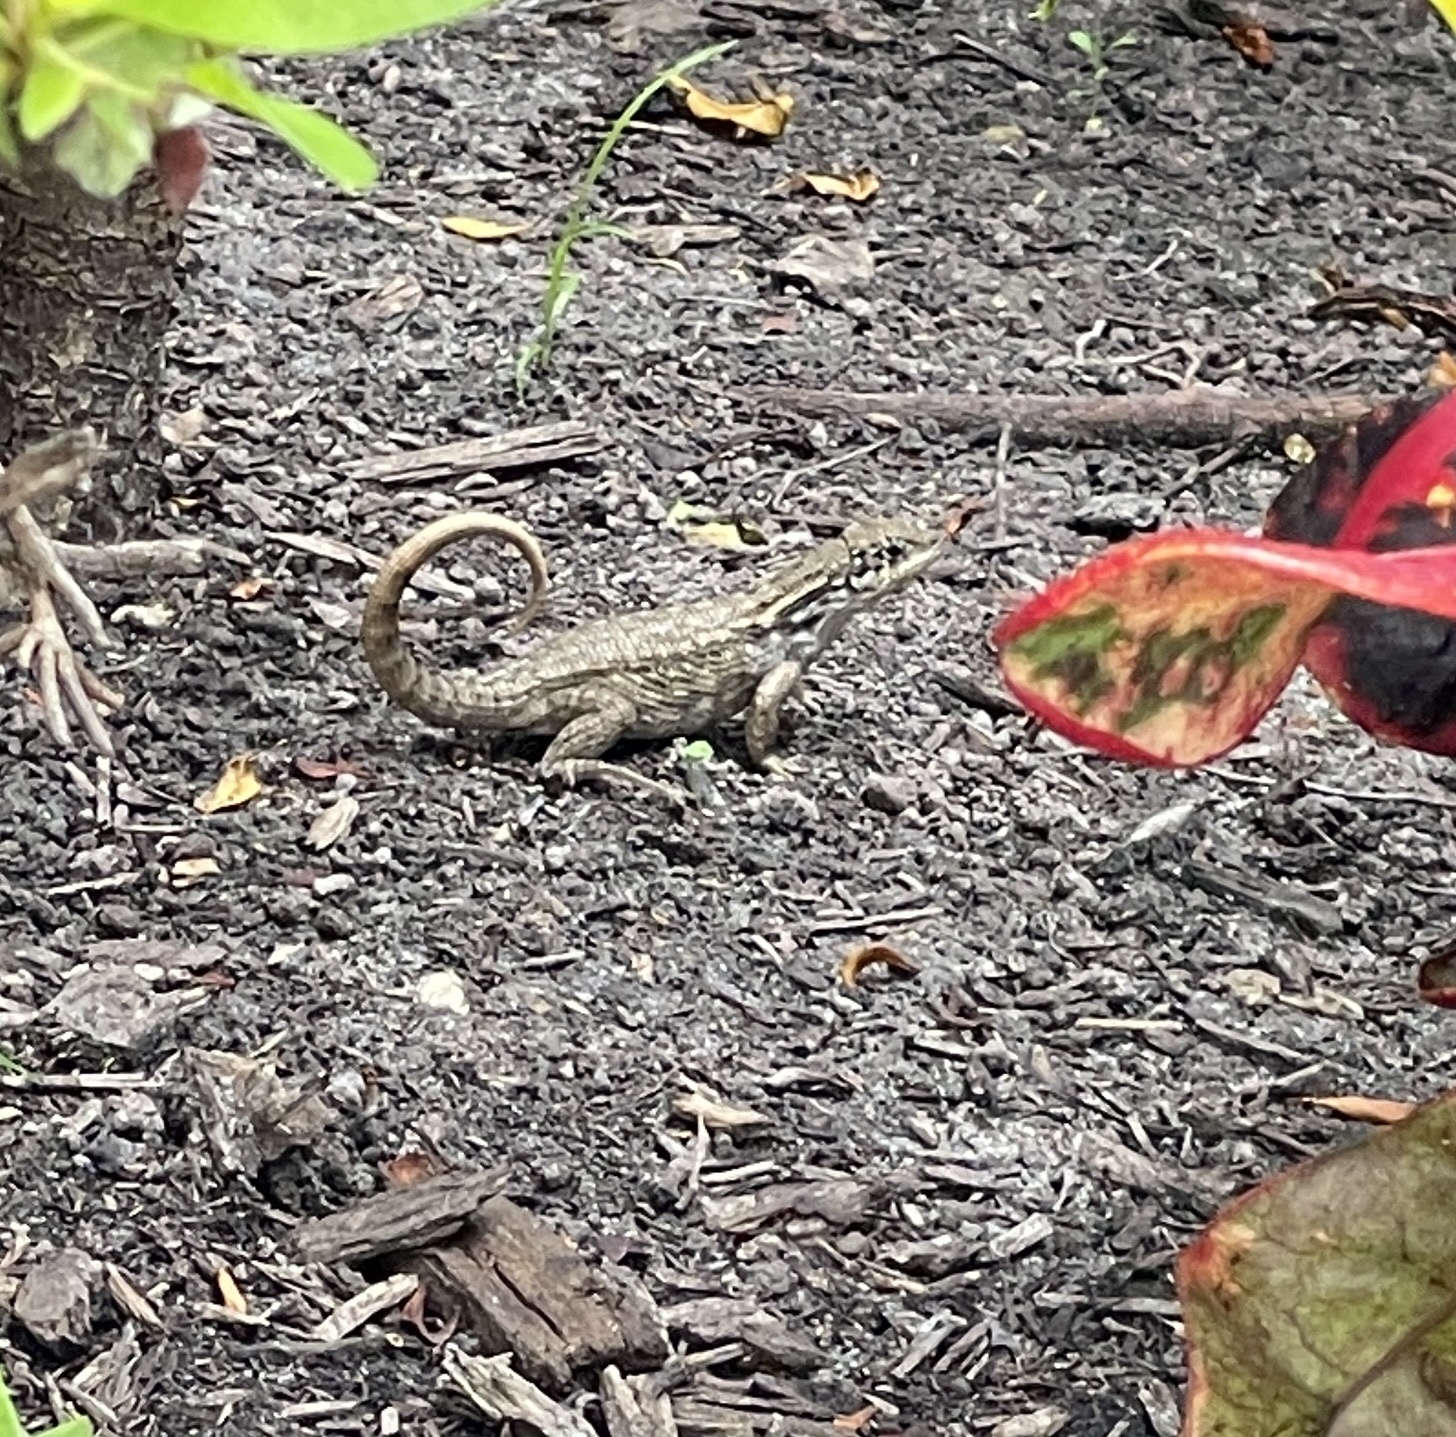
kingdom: Animalia
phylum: Chordata
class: Squamata
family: Leiocephalidae
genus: Leiocephalus
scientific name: Leiocephalus carinatus
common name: Northern curly-tailed lizard
